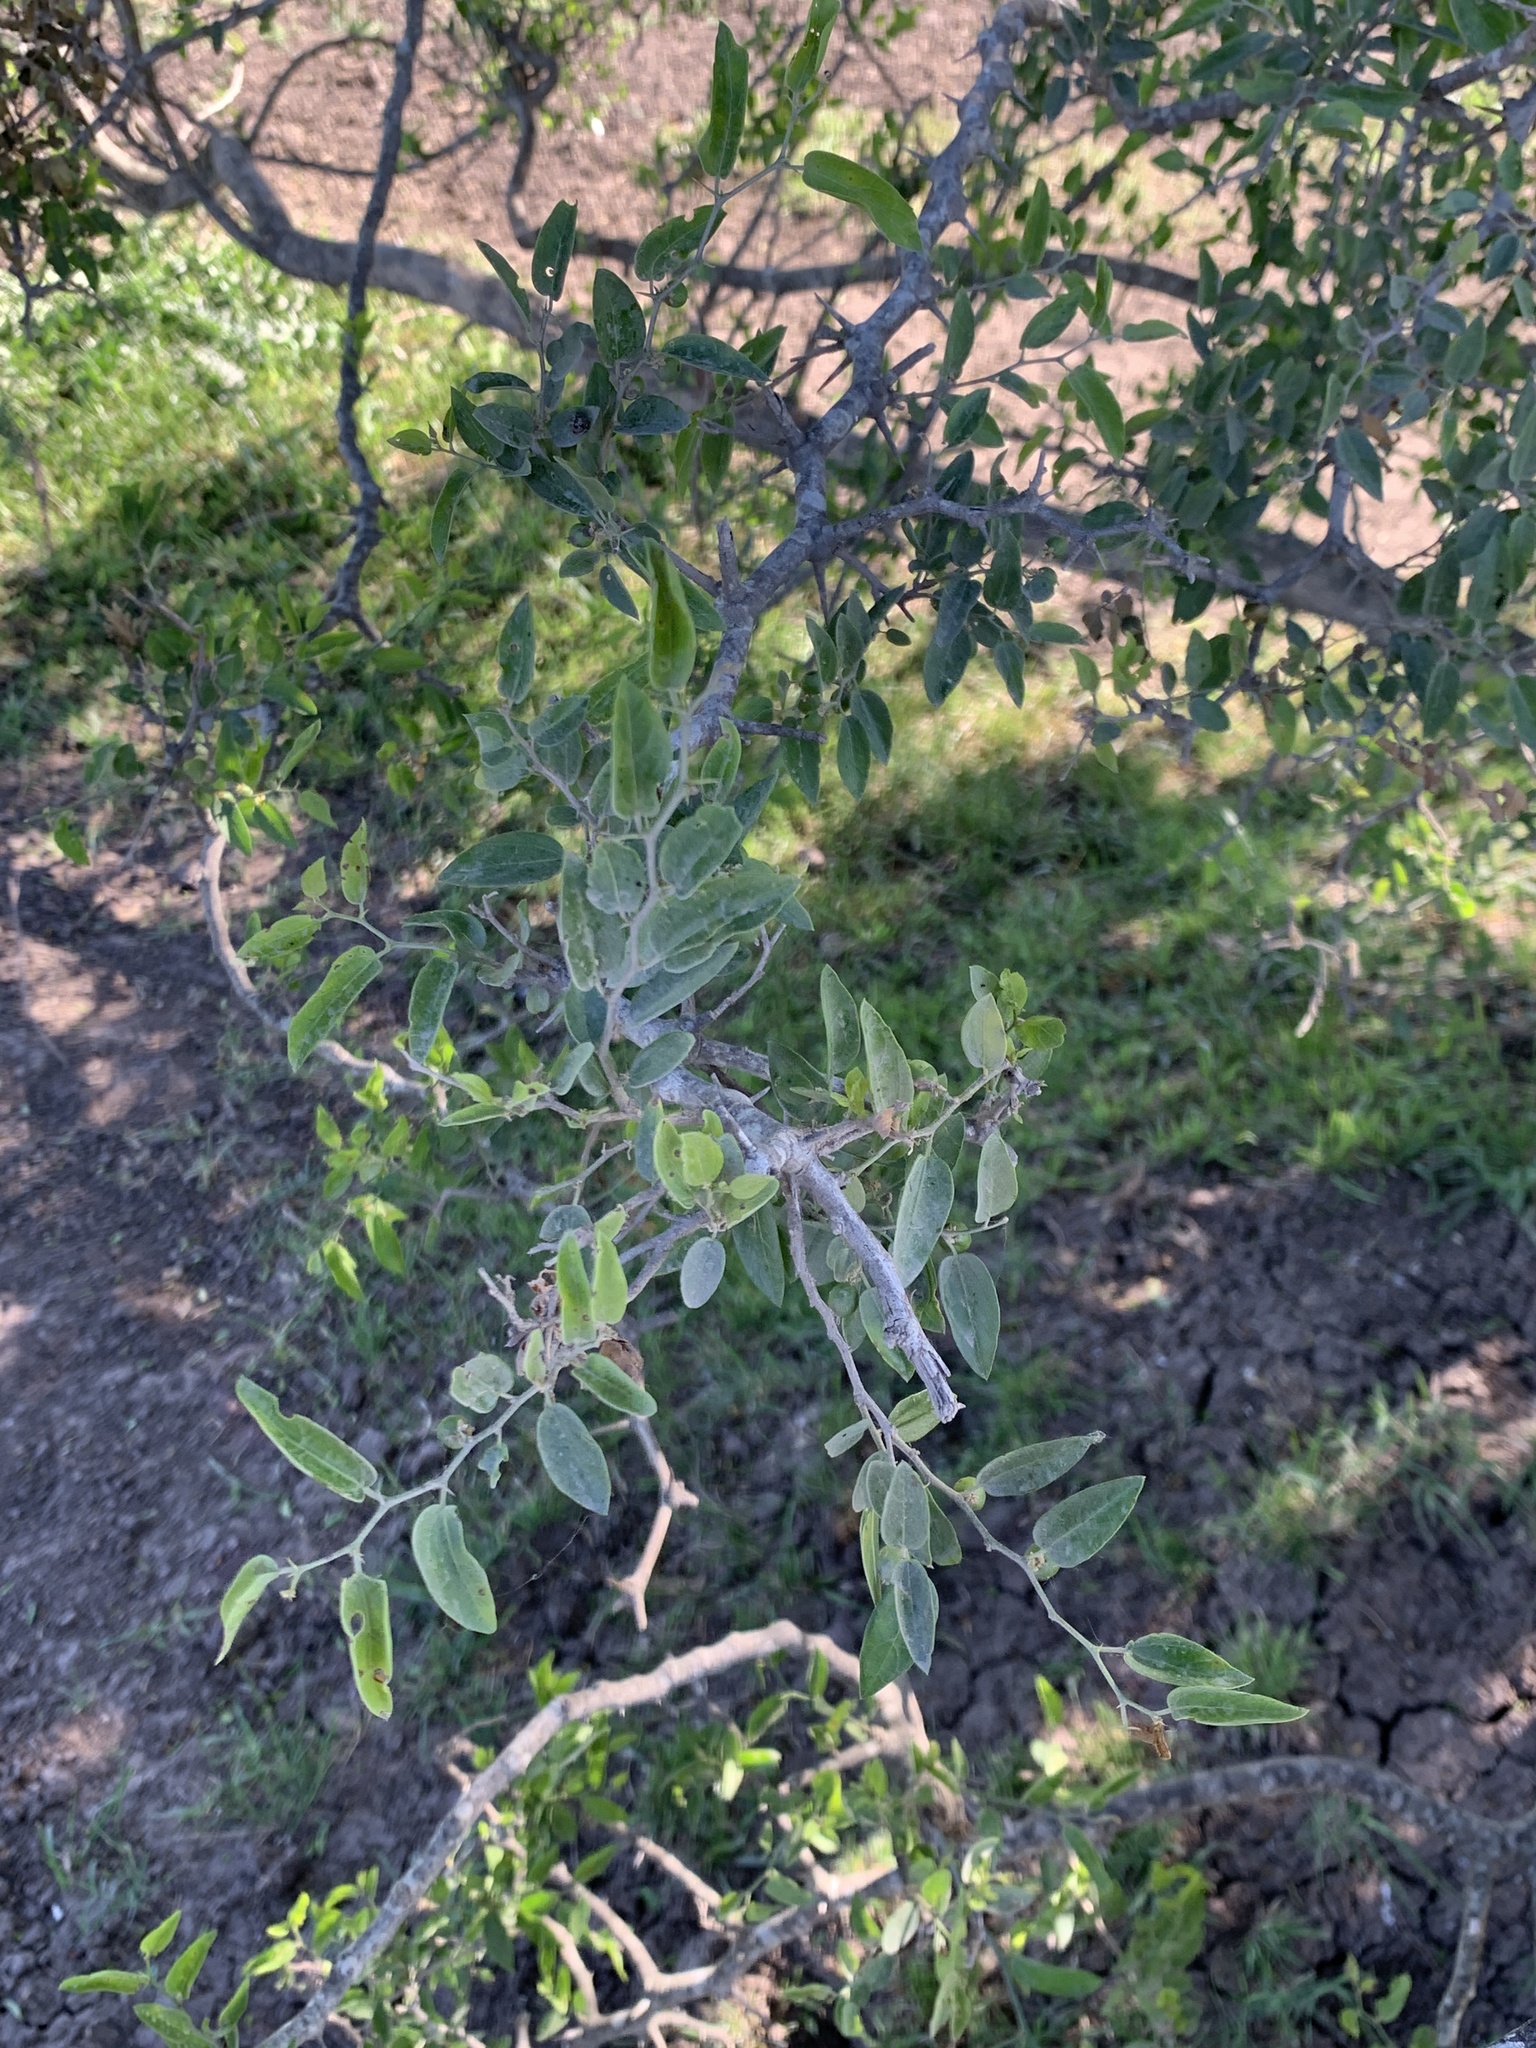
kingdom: Plantae
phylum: Tracheophyta
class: Magnoliopsida
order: Rosales
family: Cannabaceae
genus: Celtis
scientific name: Celtis tala
